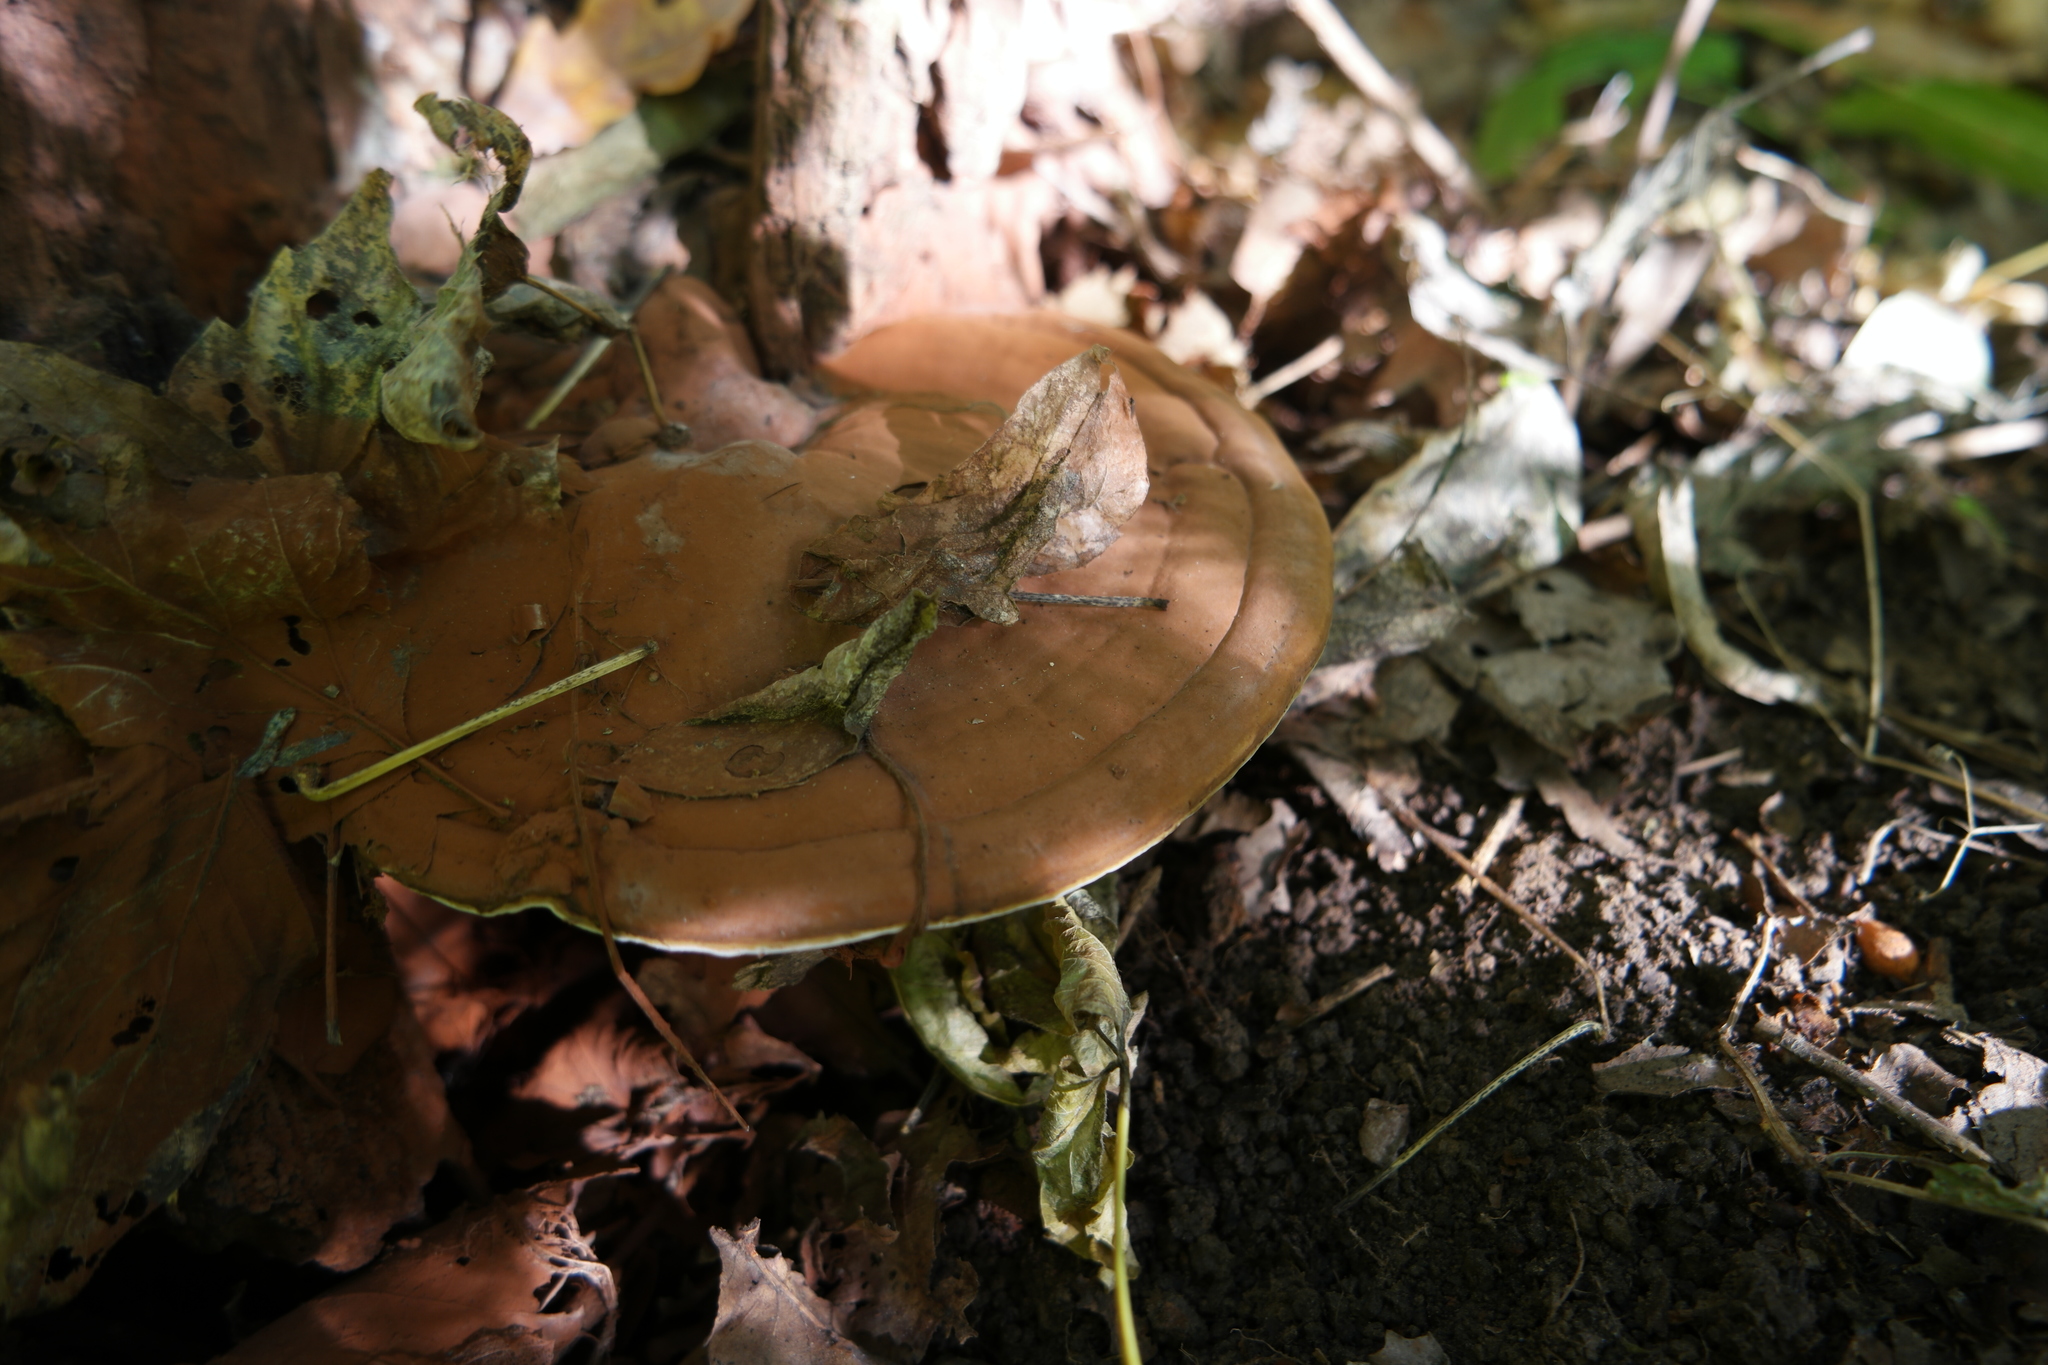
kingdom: Fungi
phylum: Basidiomycota
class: Agaricomycetes
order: Polyporales
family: Polyporaceae
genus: Ganoderma
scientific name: Ganoderma applanatum
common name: Artist's bracket
